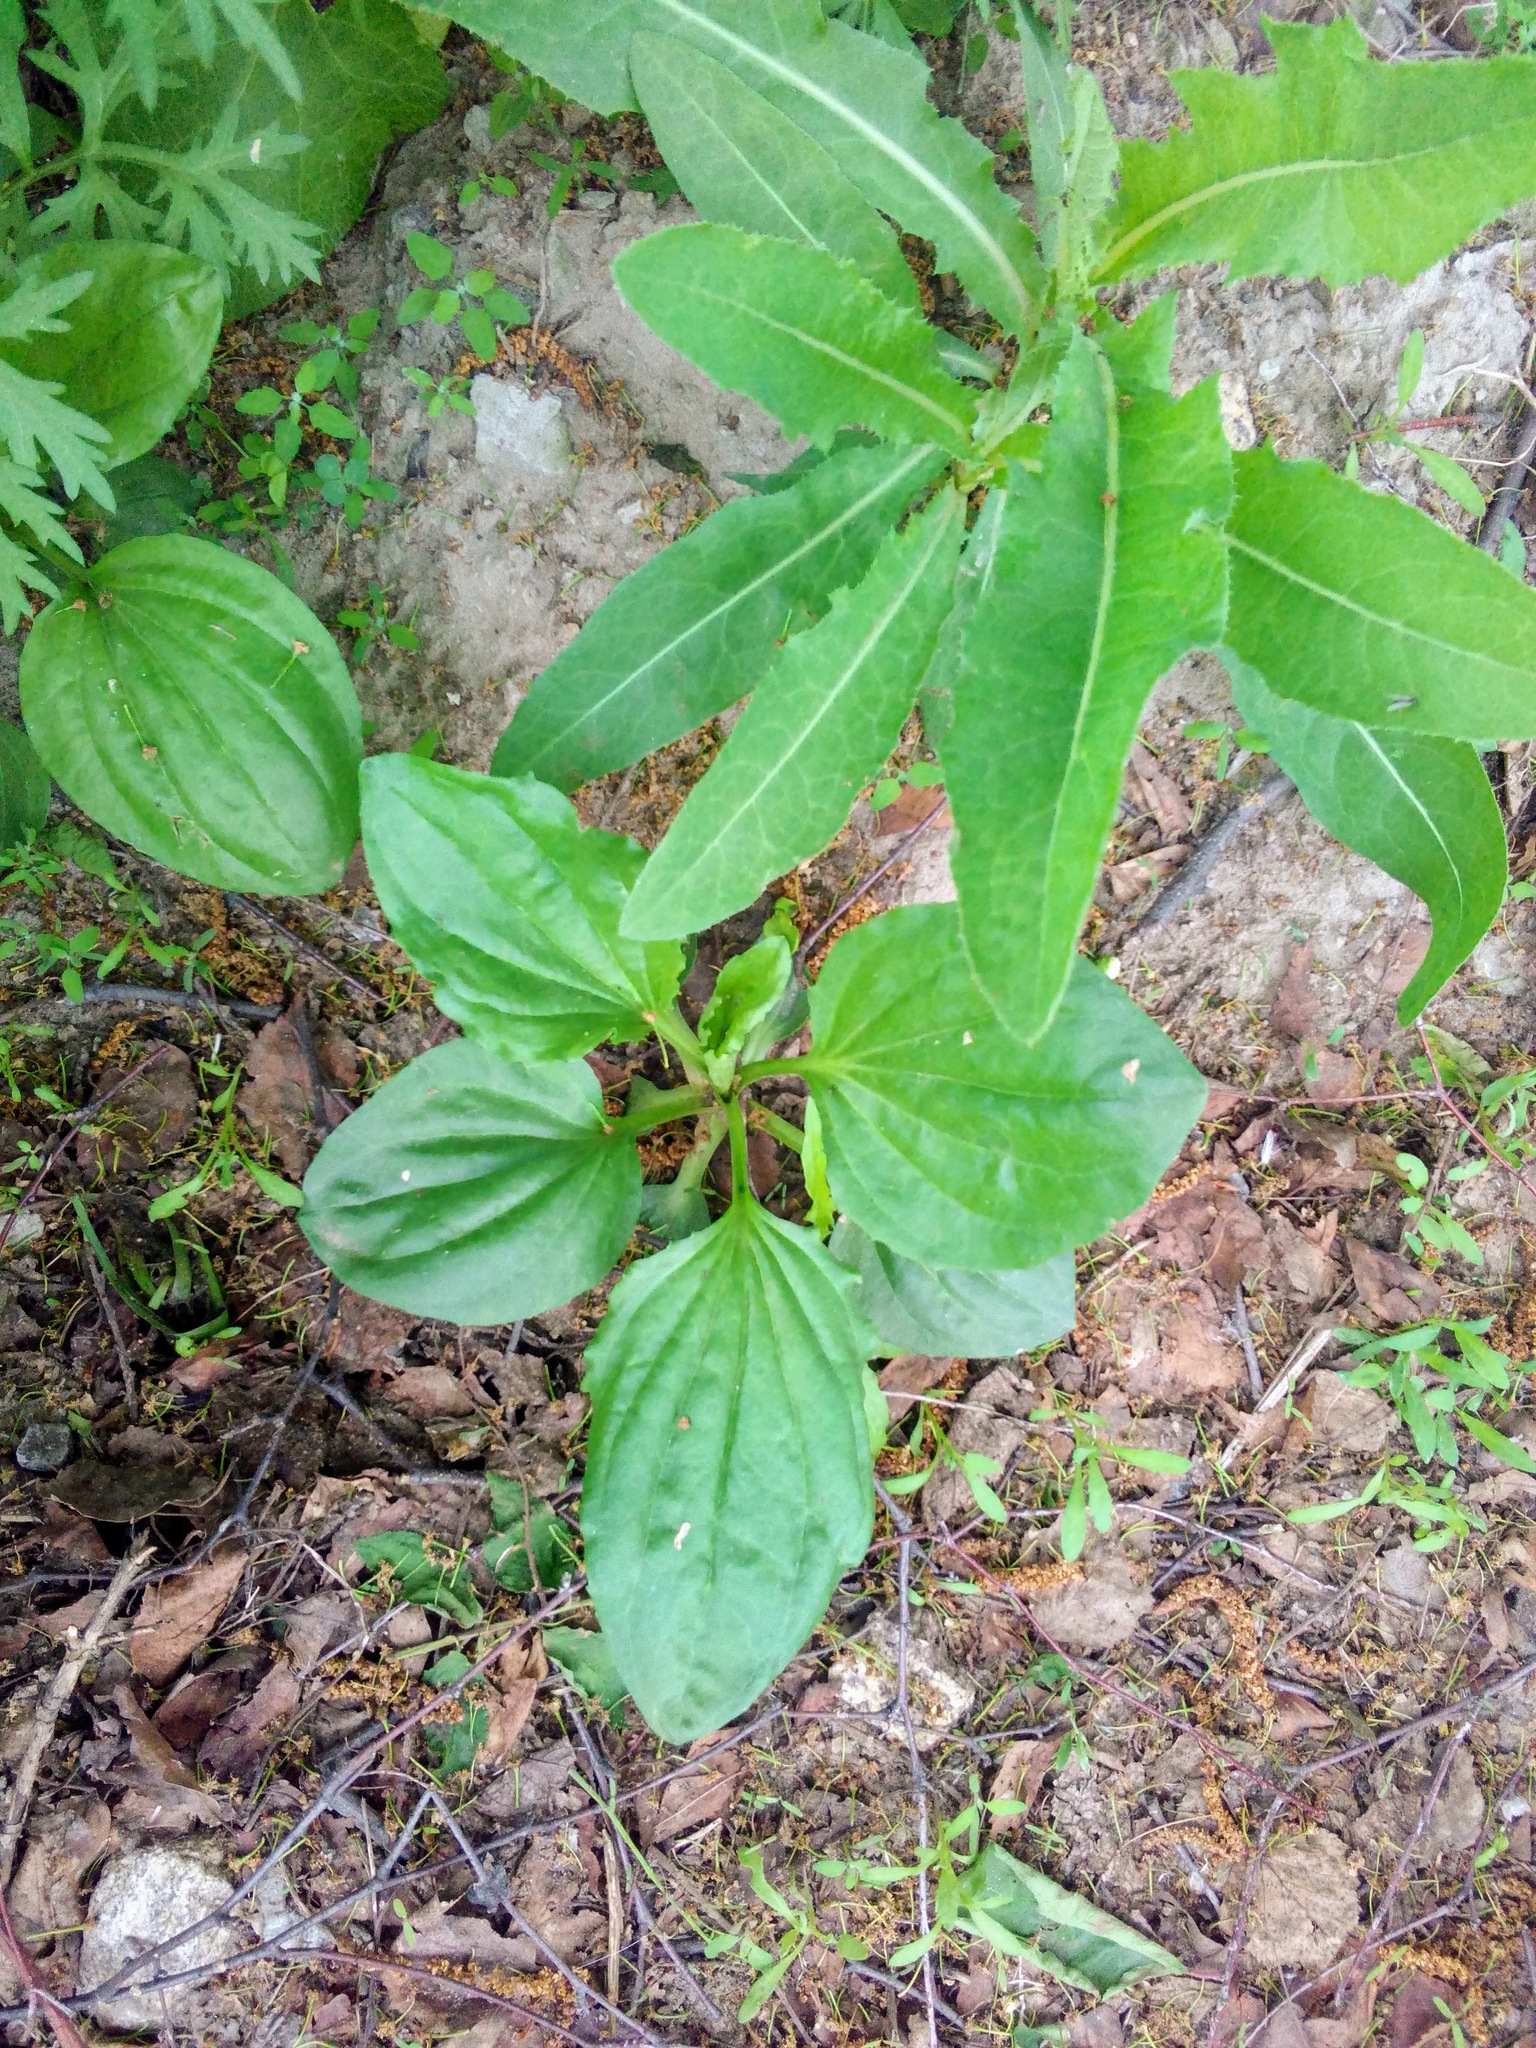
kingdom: Plantae
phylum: Tracheophyta
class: Magnoliopsida
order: Lamiales
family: Plantaginaceae
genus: Plantago
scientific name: Plantago major
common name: Common plantain
